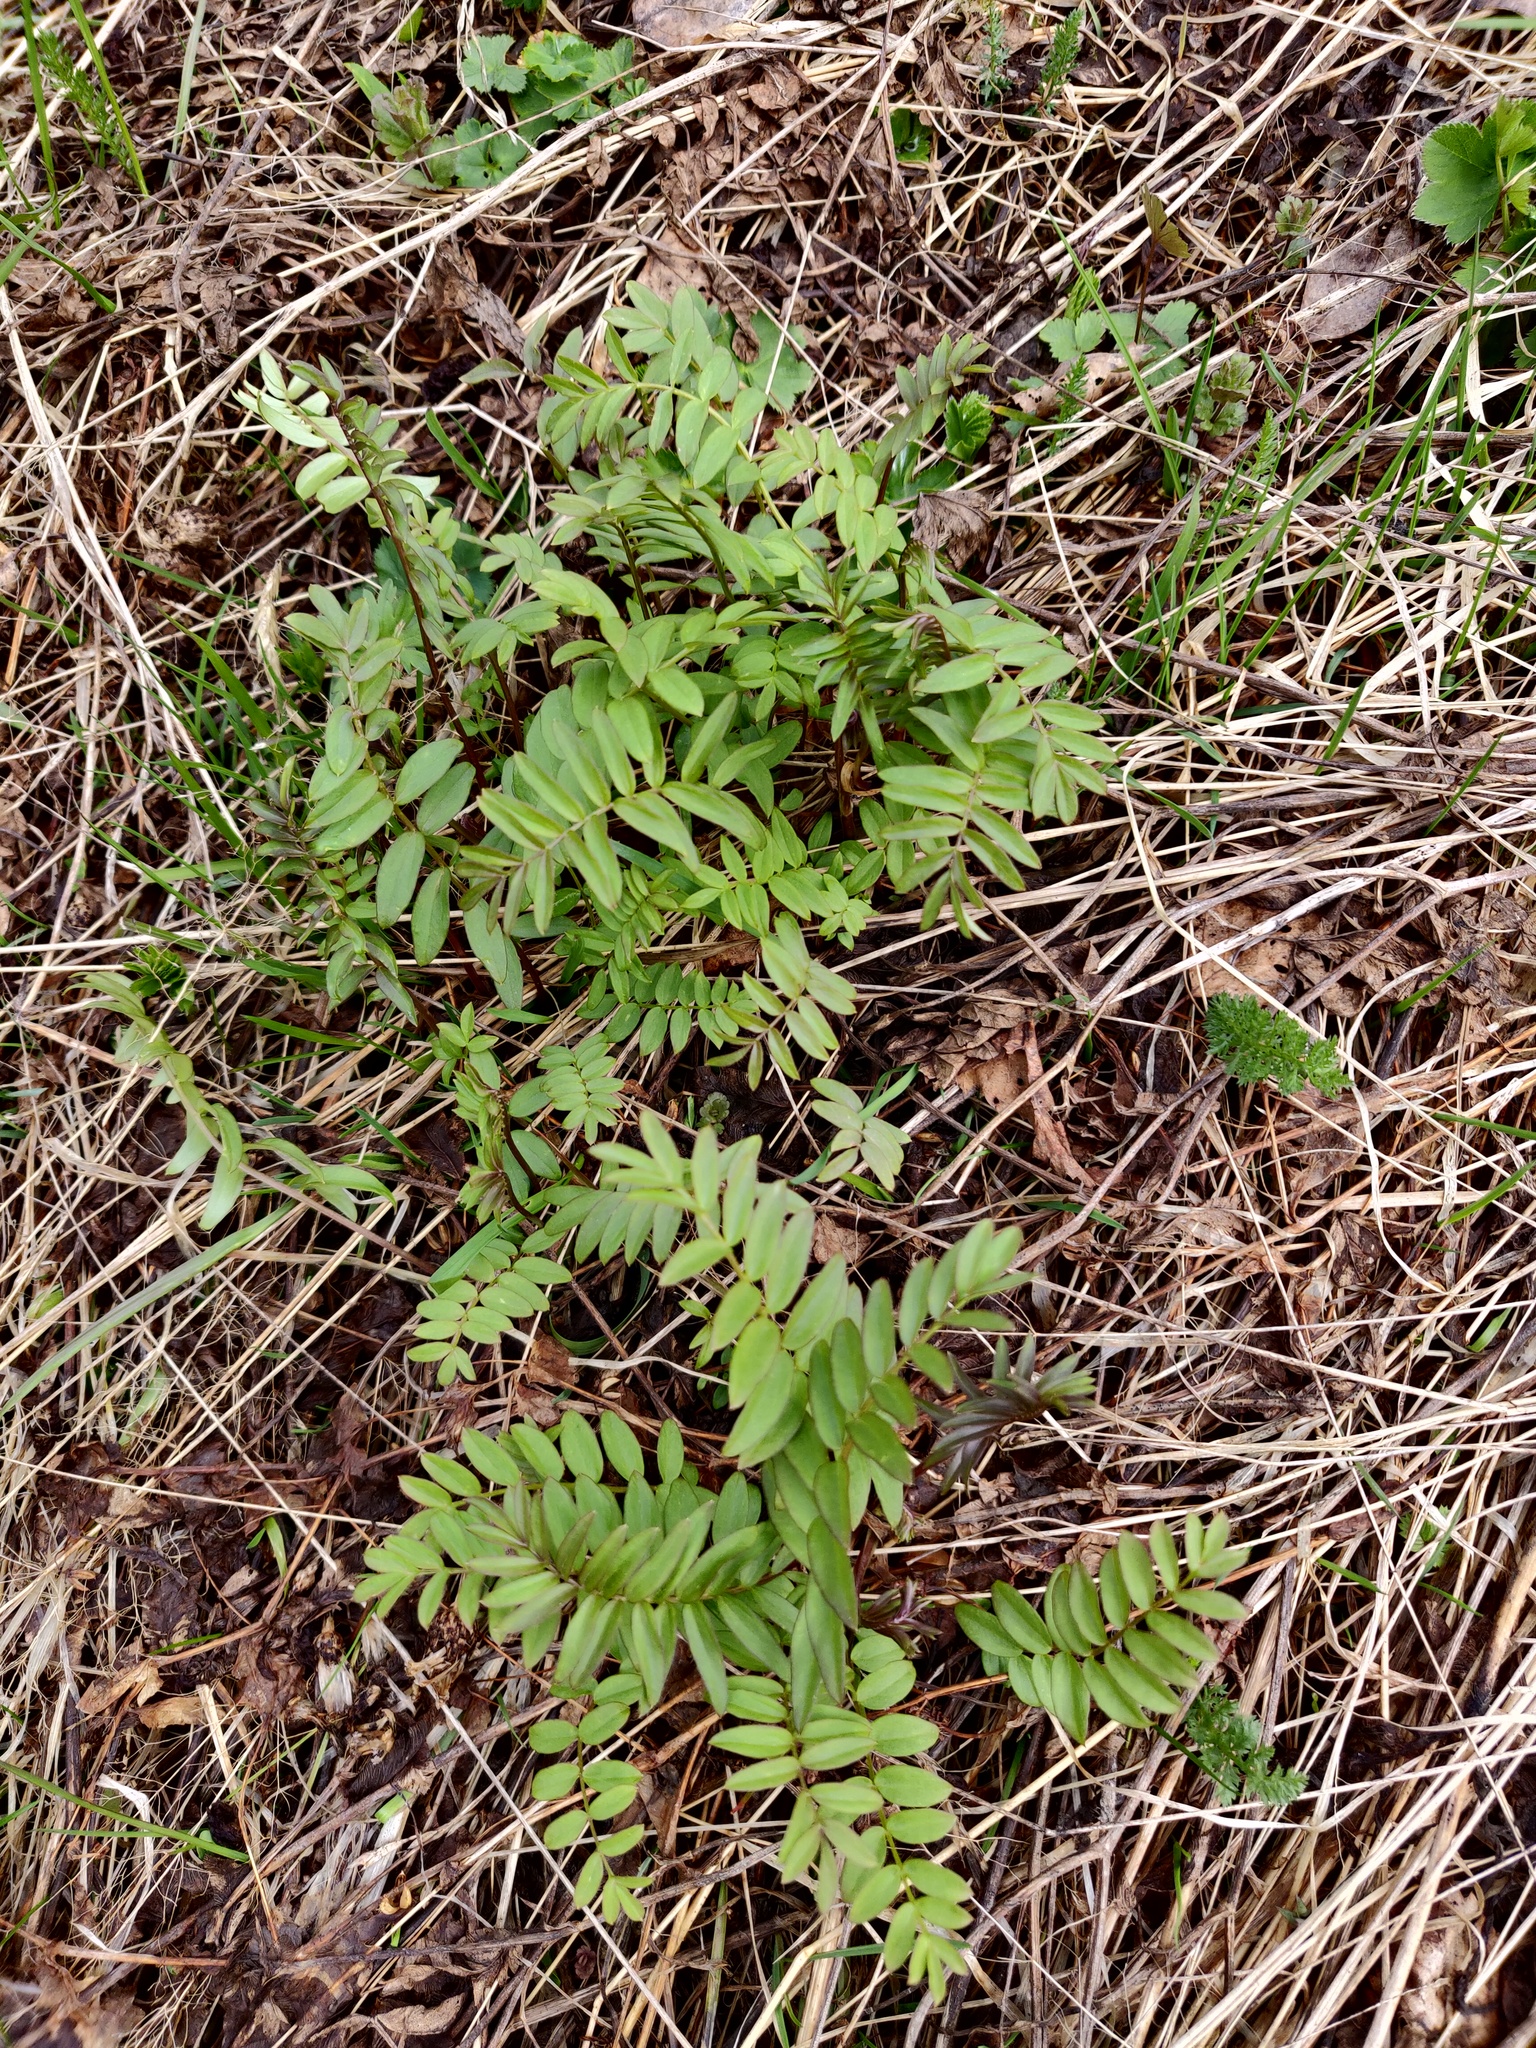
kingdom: Plantae
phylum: Tracheophyta
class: Magnoliopsida
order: Ericales
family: Polemoniaceae
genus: Polemonium
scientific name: Polemonium caeruleum
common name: Jacob's-ladder
